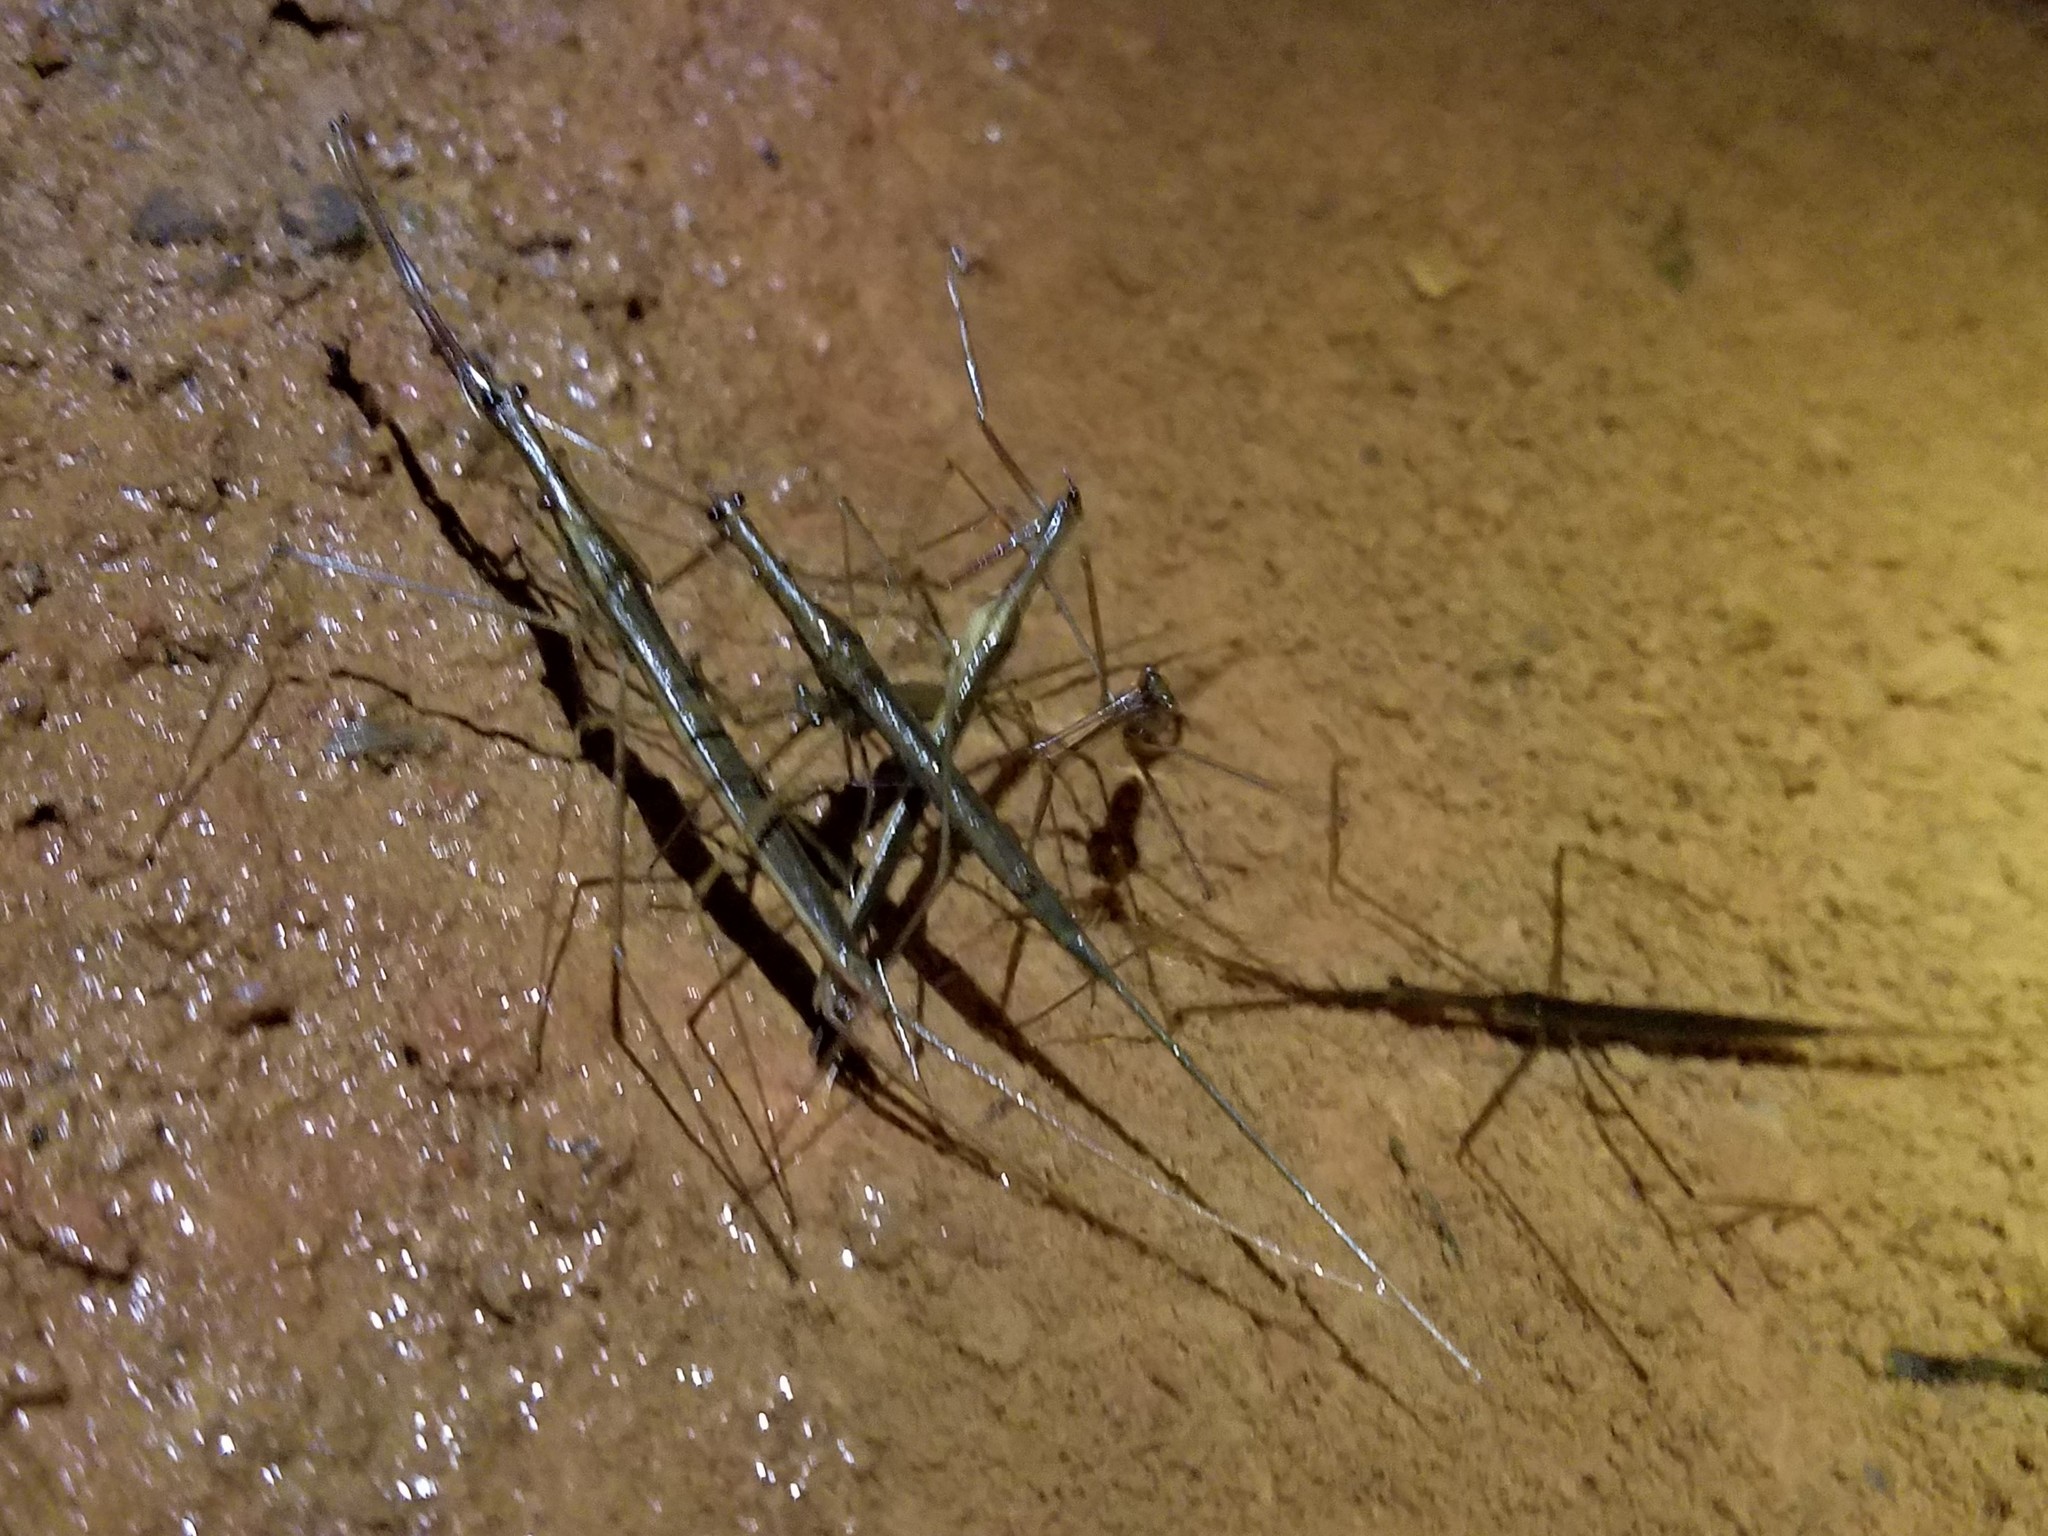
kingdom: Animalia
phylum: Arthropoda
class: Insecta
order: Hemiptera
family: Nepidae
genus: Ranatra
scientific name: Ranatra
